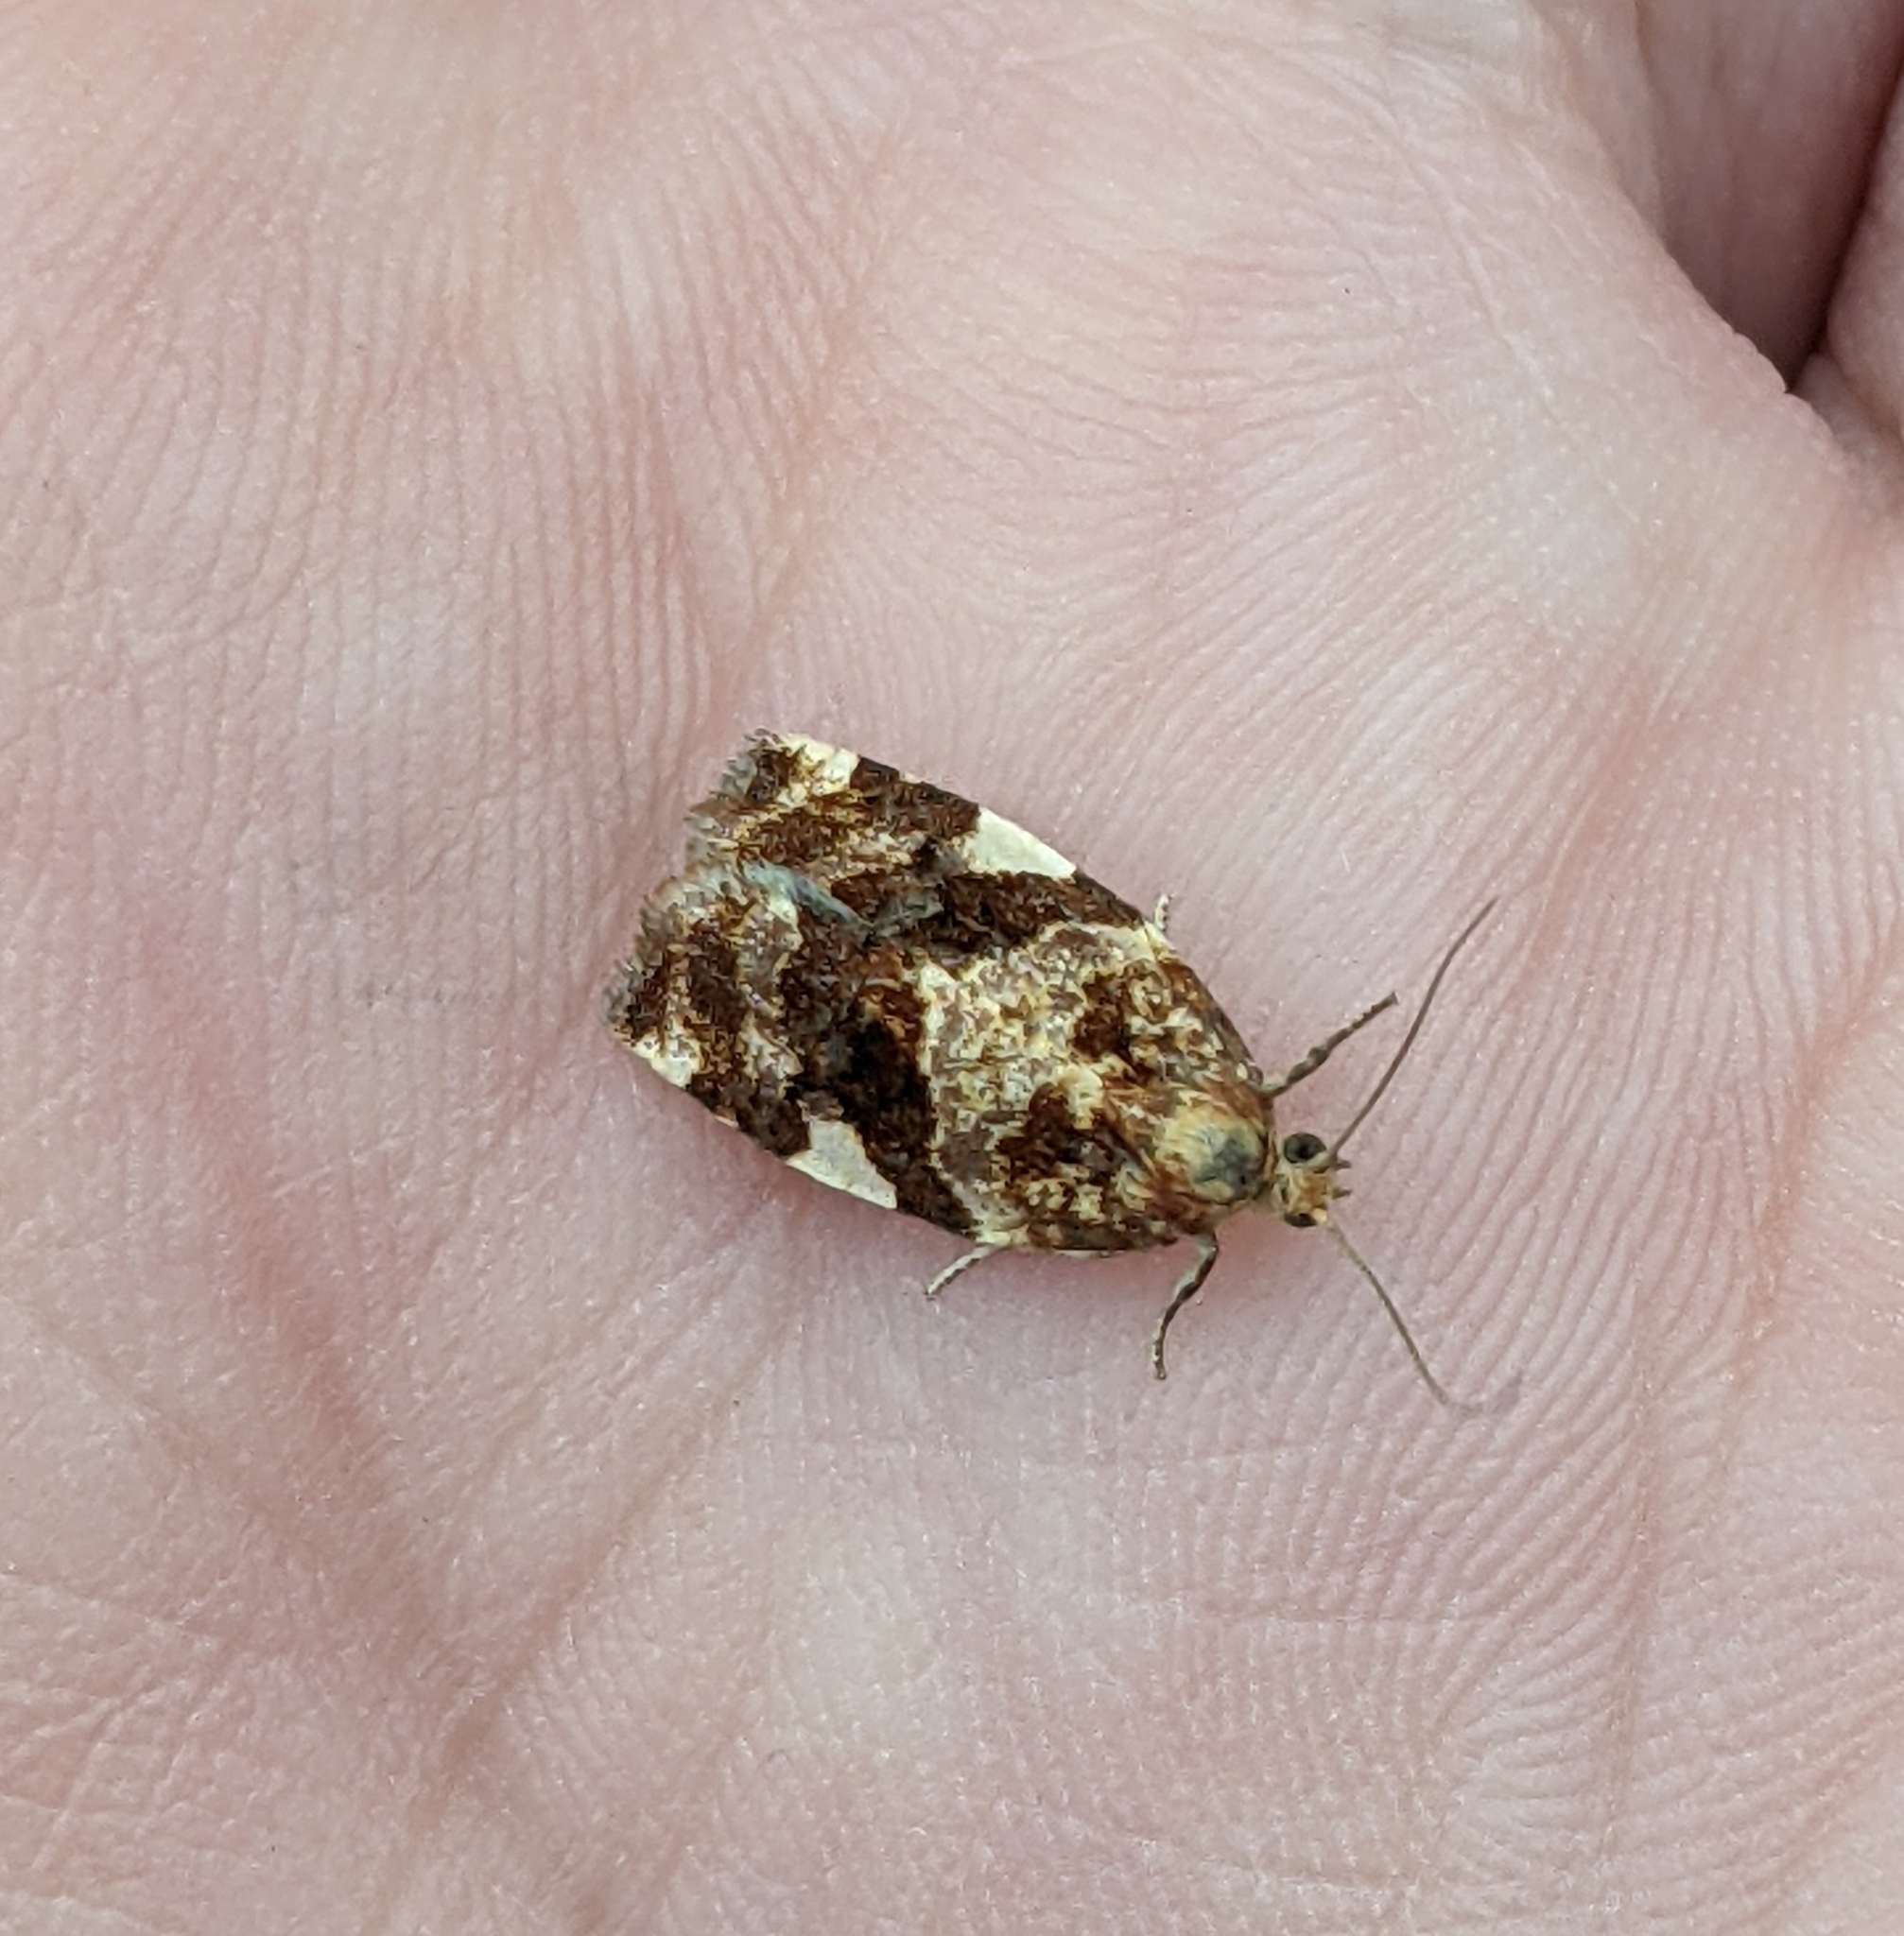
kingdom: Animalia
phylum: Arthropoda
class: Insecta
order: Lepidoptera
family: Tortricidae
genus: Archips
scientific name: Archips argyrospila
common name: Fruit-tree leafroller moth
